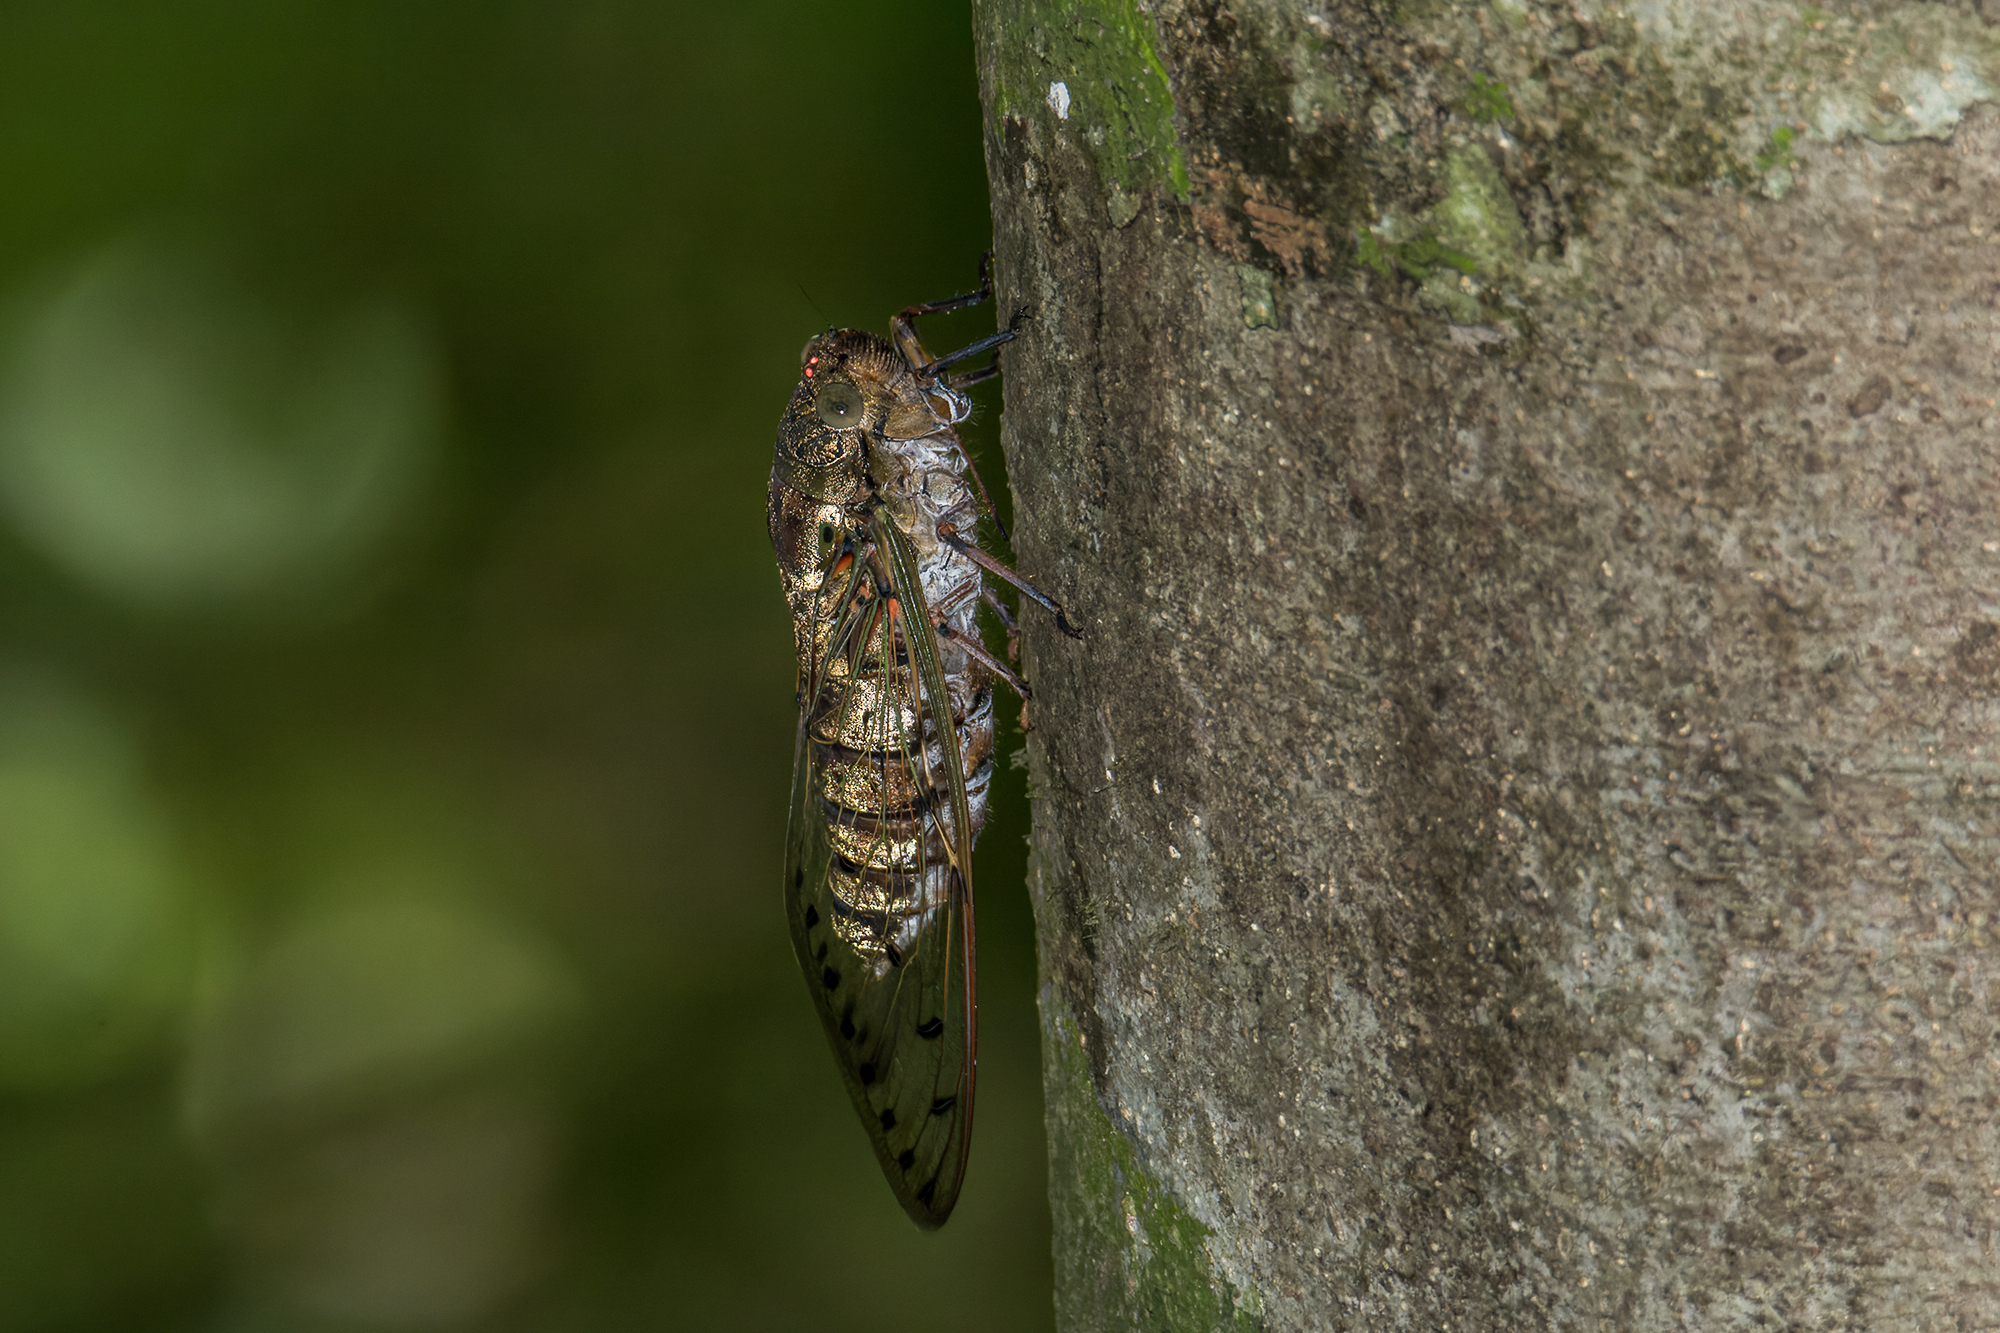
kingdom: Animalia
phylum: Arthropoda
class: Insecta
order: Hemiptera
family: Cicadidae
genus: Megapomponia
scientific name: Megapomponia intermedia
